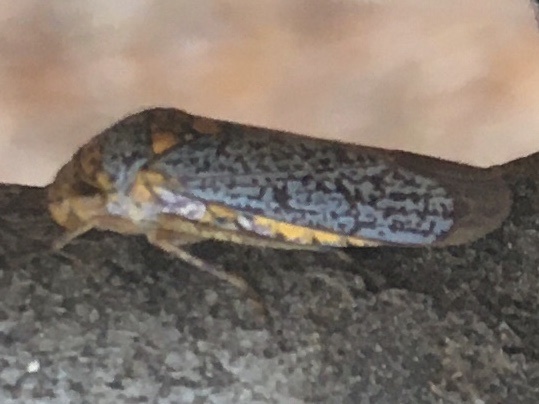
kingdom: Animalia
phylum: Arthropoda
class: Insecta
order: Hemiptera
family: Cicadellidae
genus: Oncometopia
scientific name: Oncometopia orbona
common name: Broad-headed sharpshooter
